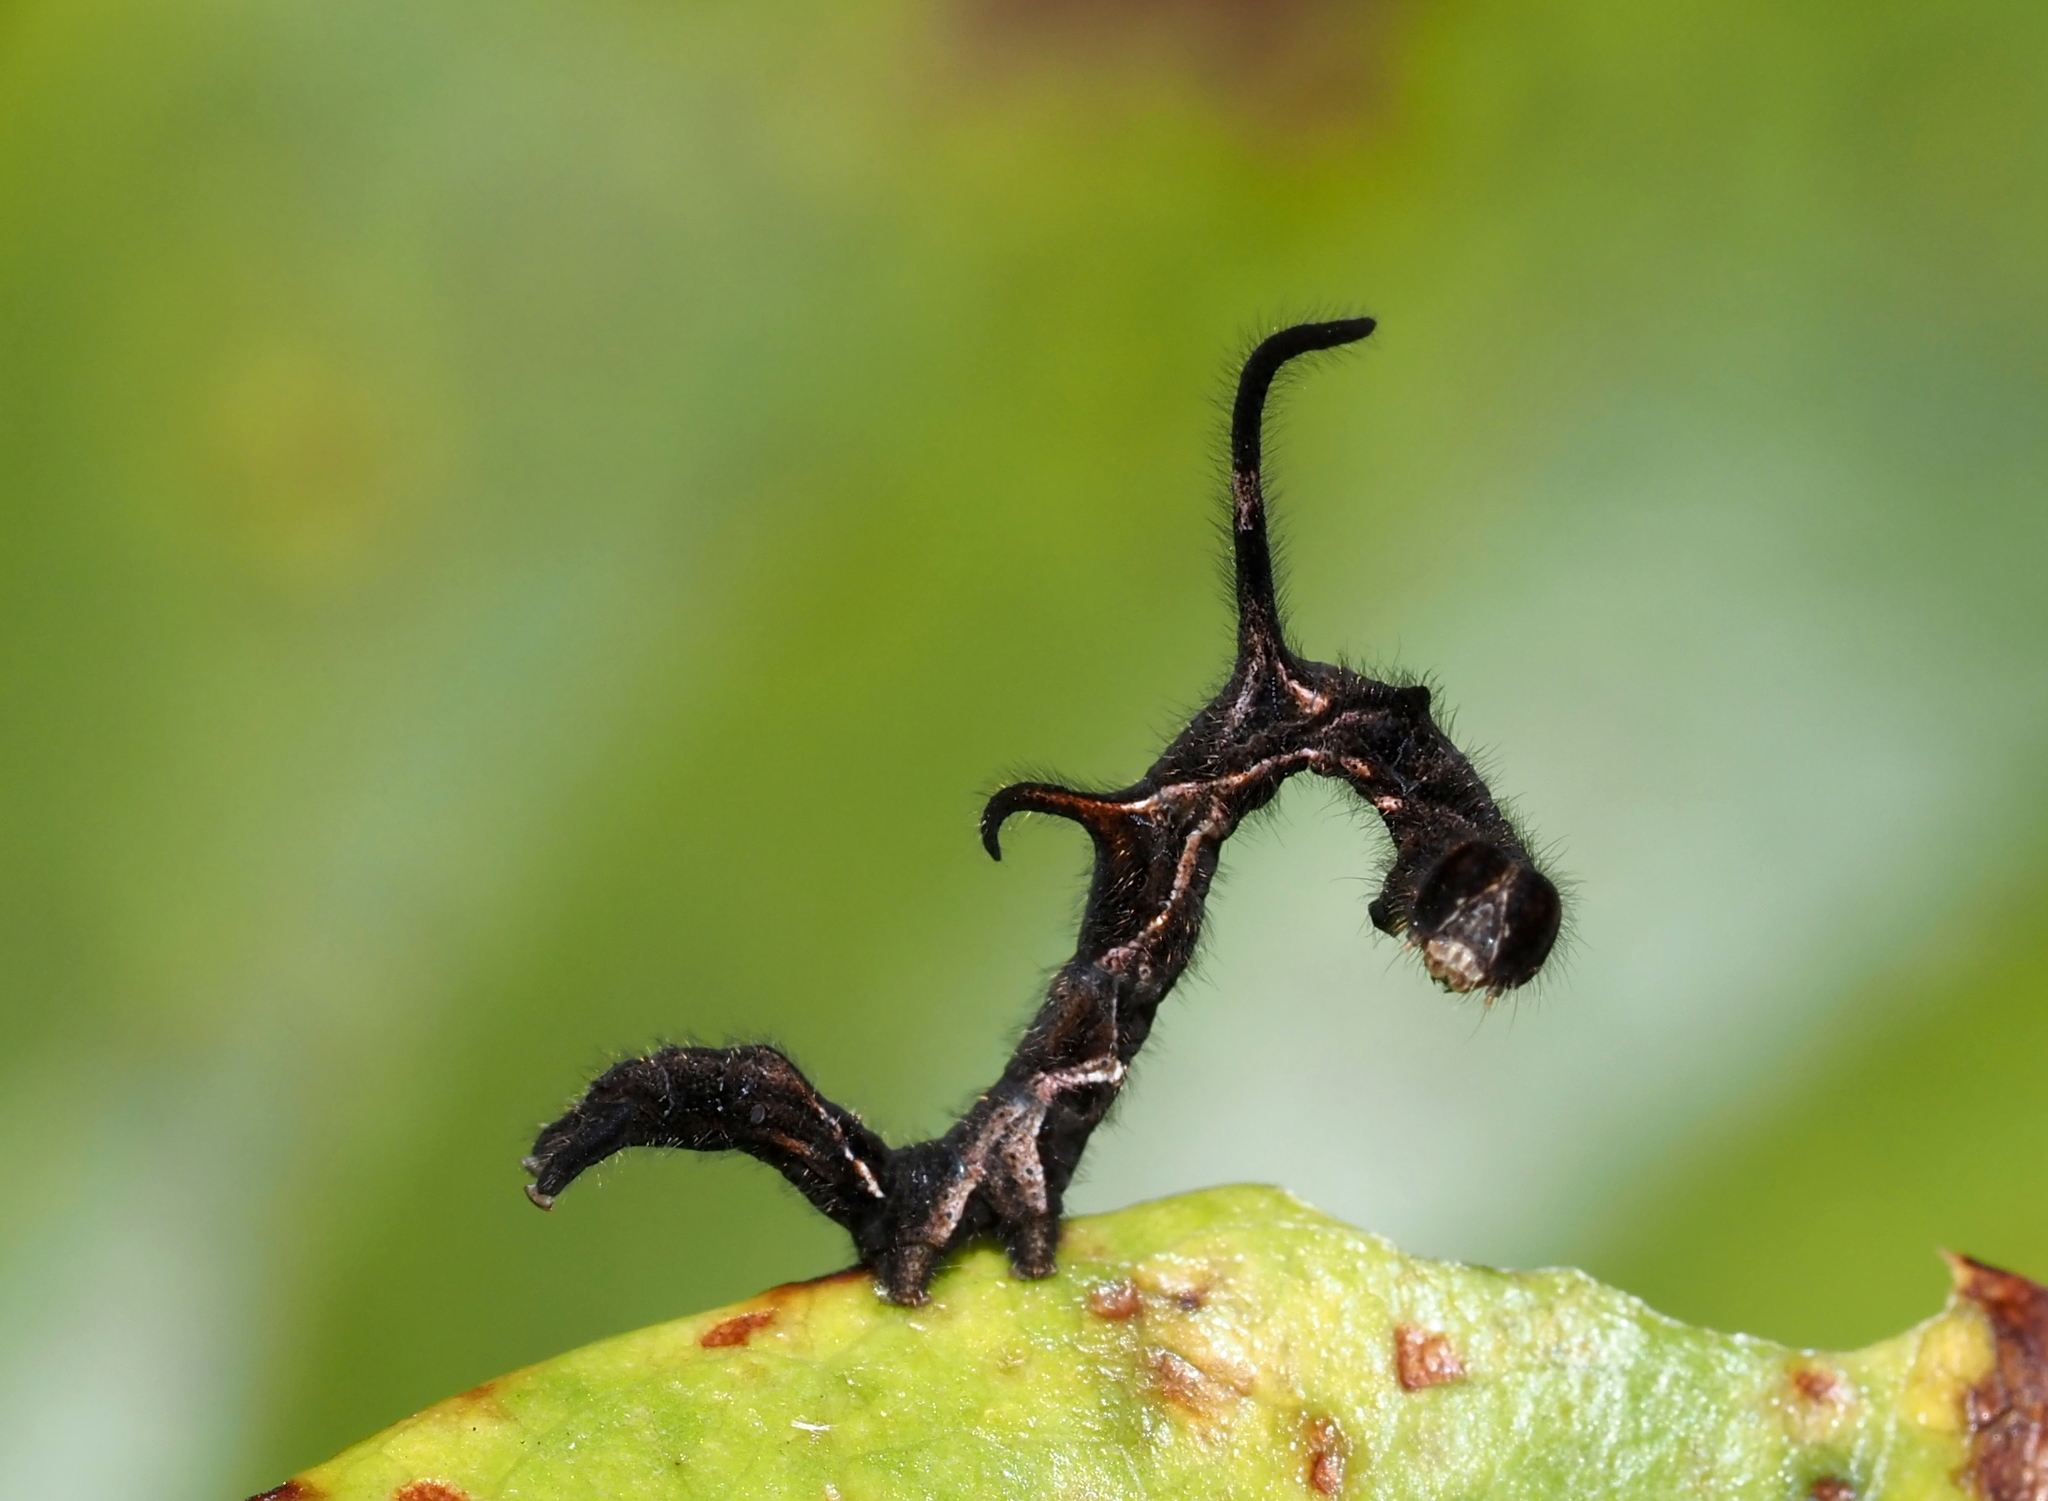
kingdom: Animalia
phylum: Arthropoda
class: Insecta
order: Lepidoptera
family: Erebidae
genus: Phyprosopus
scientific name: Phyprosopus callitrichoides
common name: Curved-lined owlet
